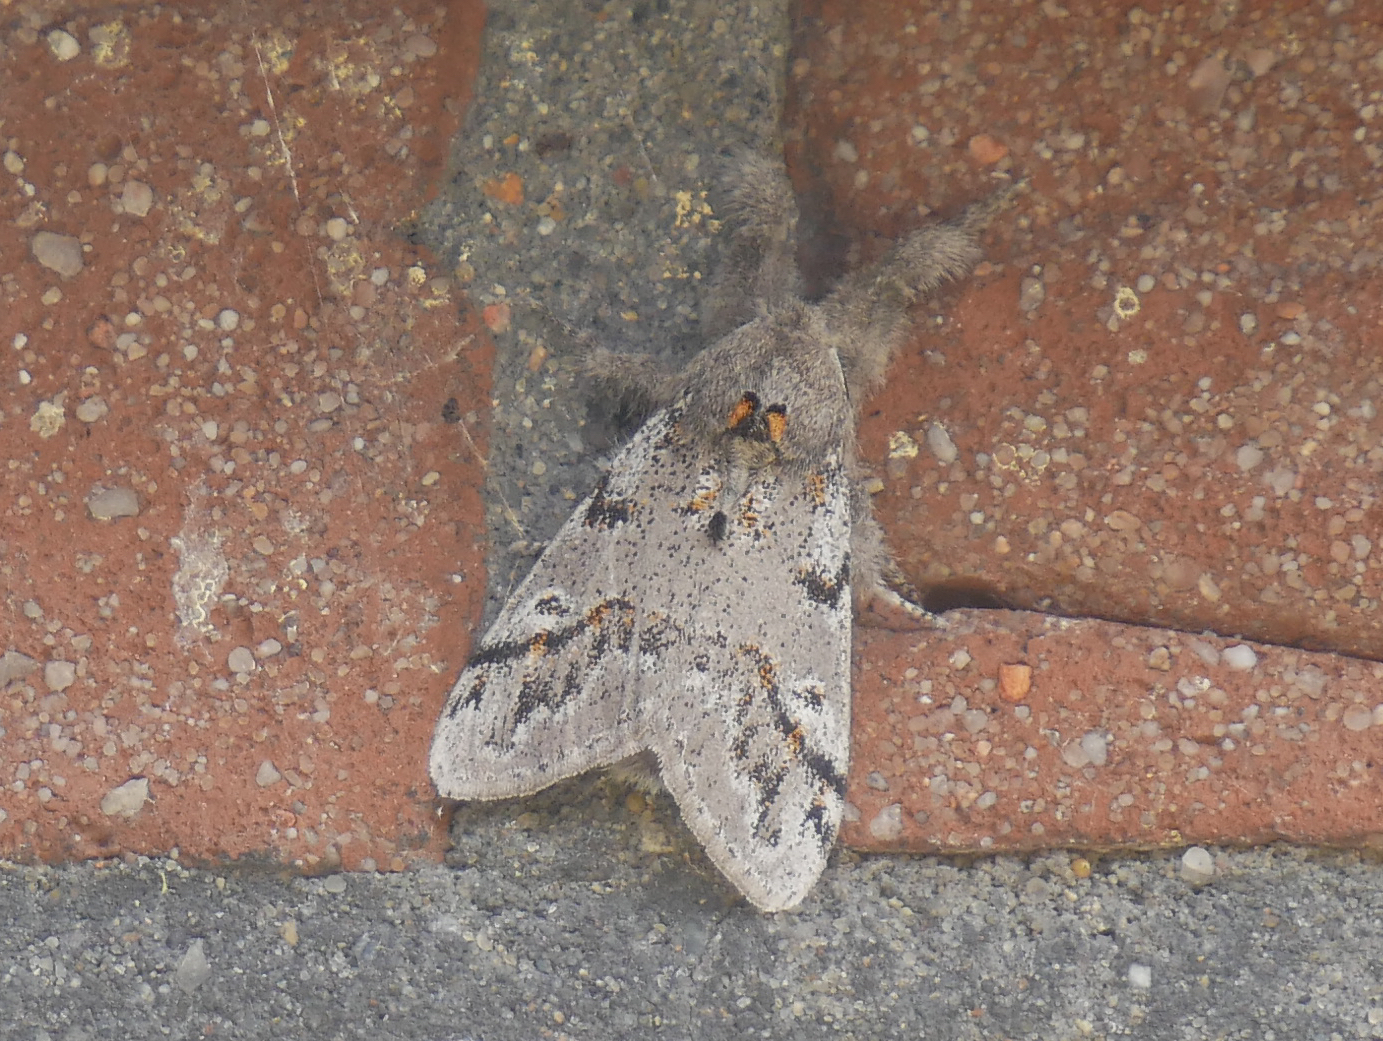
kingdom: Animalia
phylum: Arthropoda
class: Insecta
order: Lepidoptera
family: Erebidae
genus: Calliteara
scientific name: Calliteara Dicallomera fascelina
